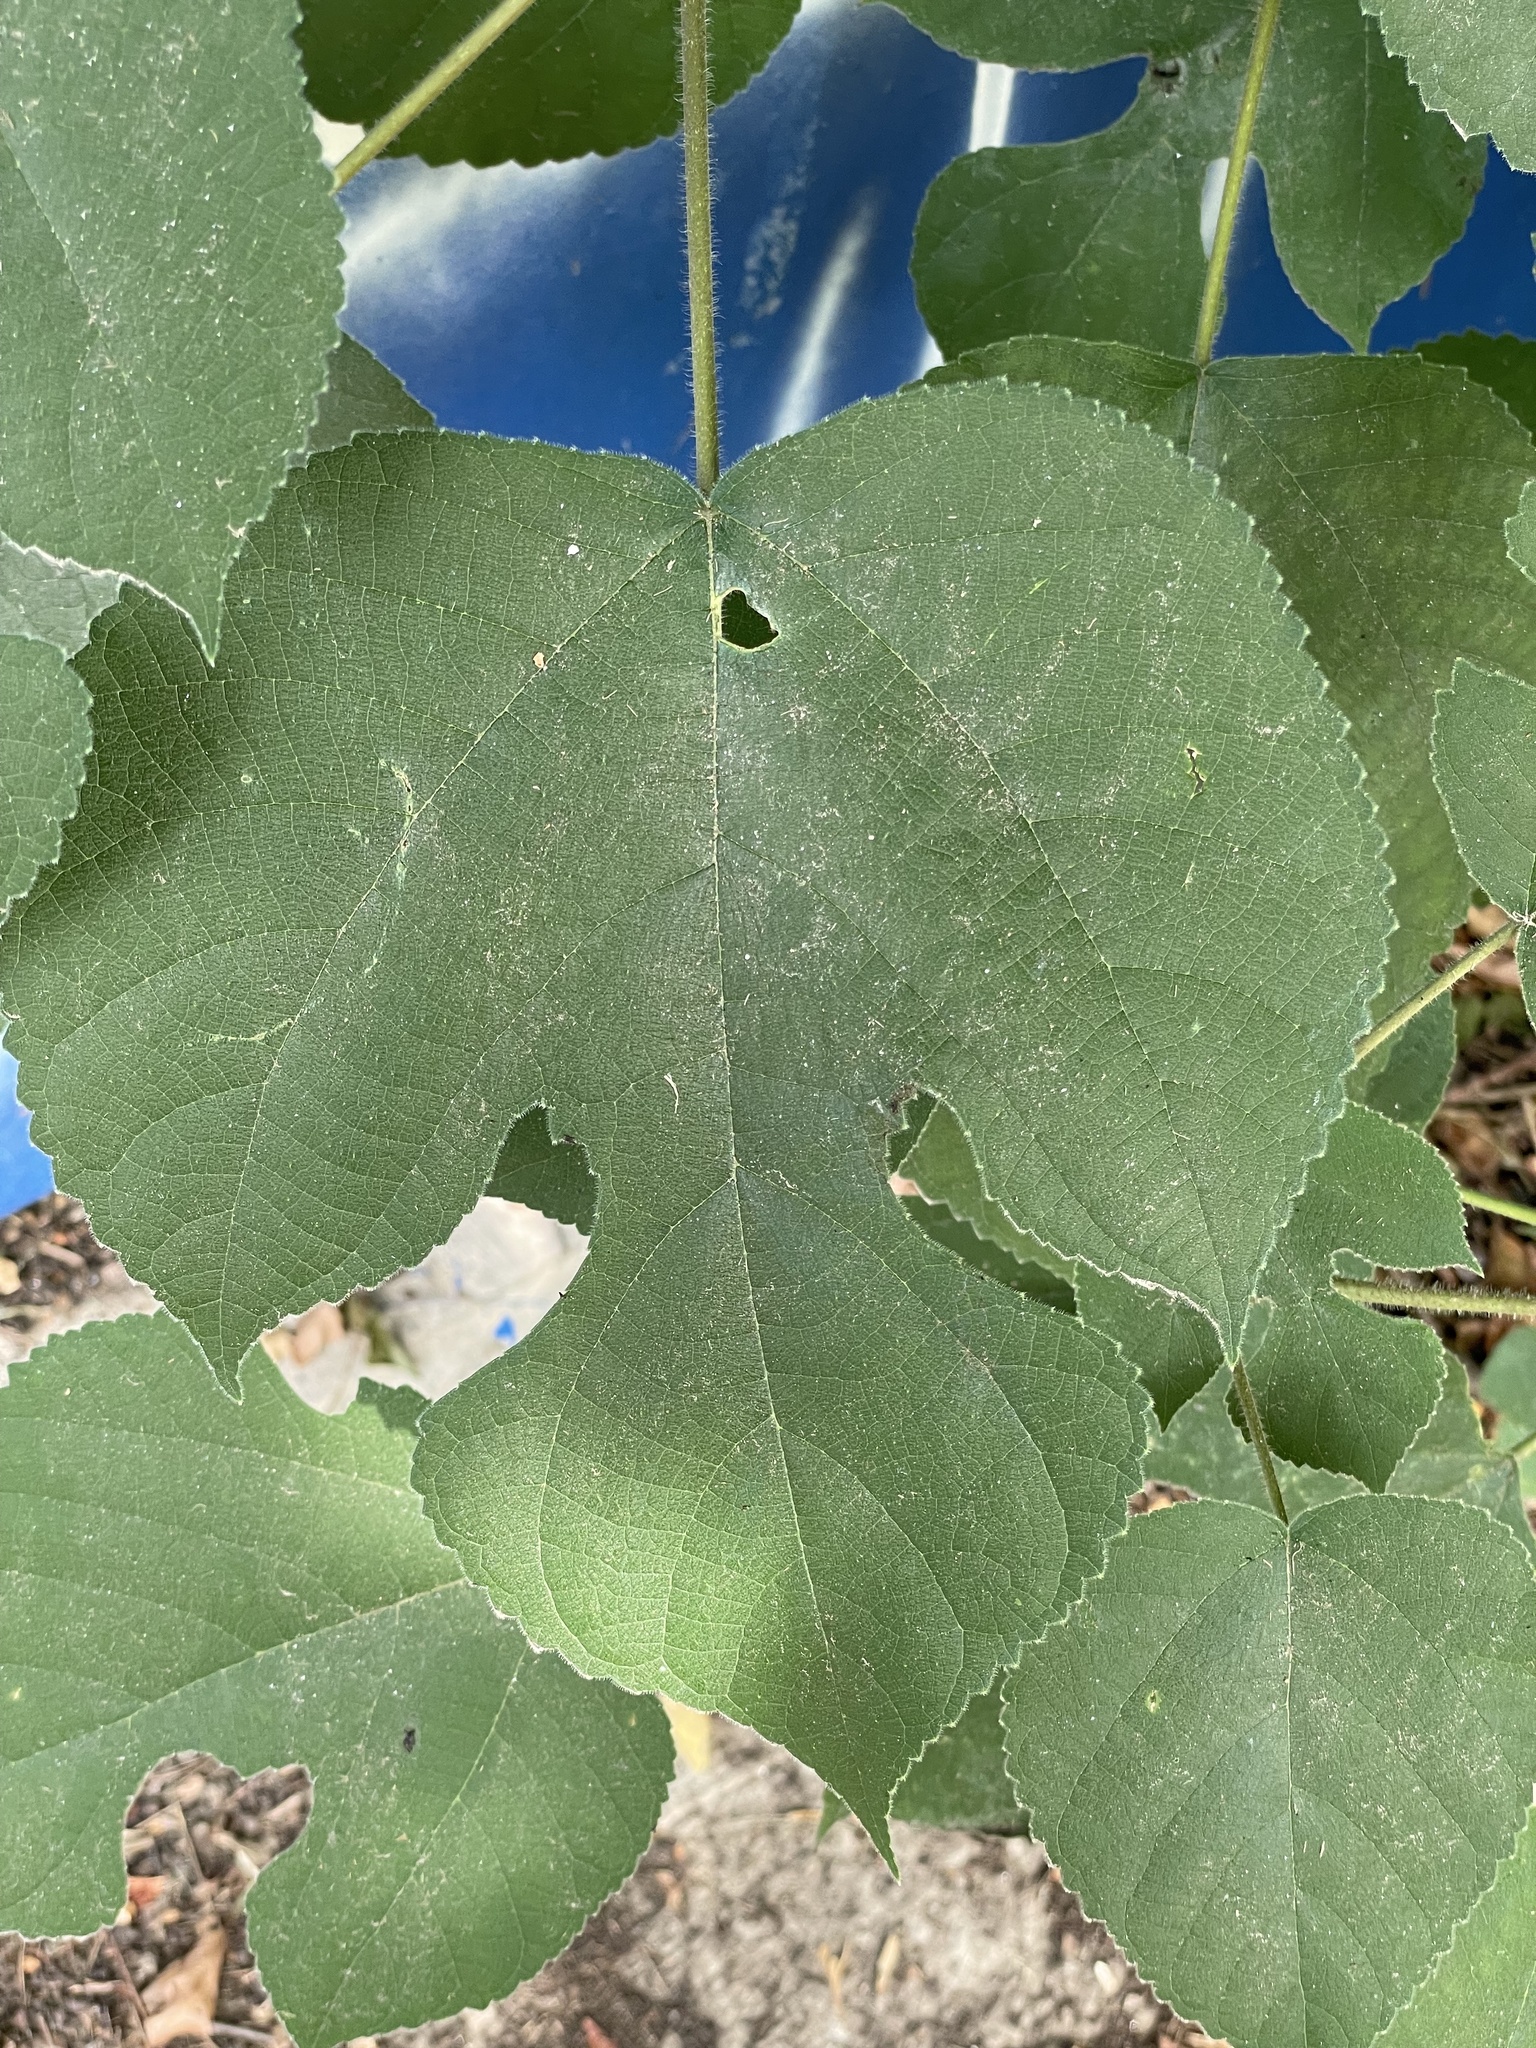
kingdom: Plantae
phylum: Tracheophyta
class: Magnoliopsida
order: Rosales
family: Moraceae
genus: Broussonetia
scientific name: Broussonetia papyrifera
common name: Paper mulberry
